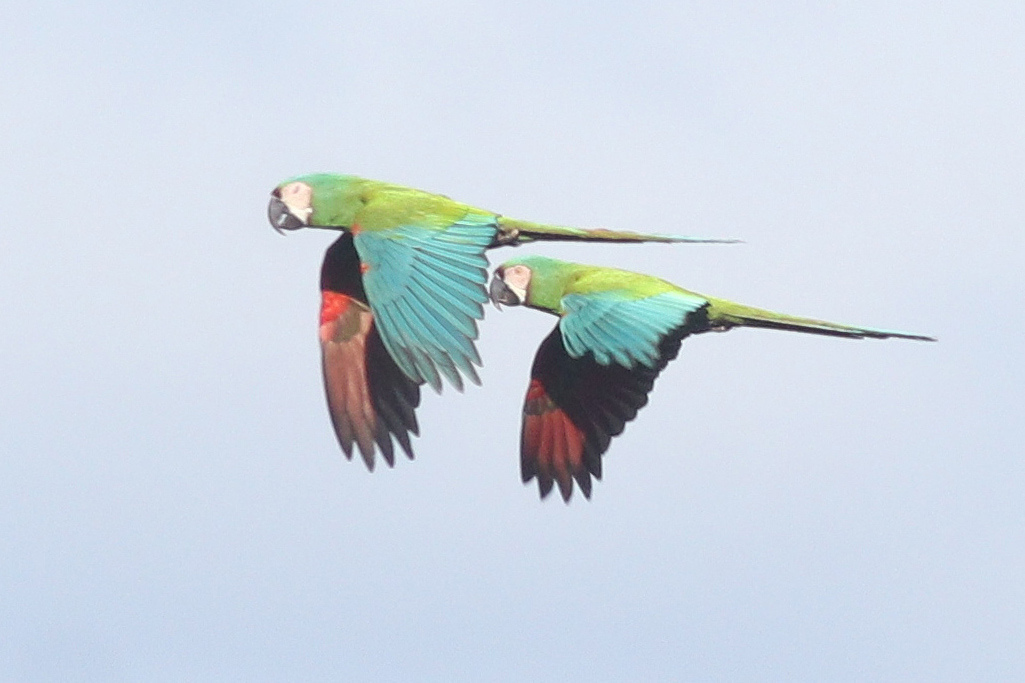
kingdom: Animalia
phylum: Chordata
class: Aves
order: Psittaciformes
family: Psittacidae
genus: Ara
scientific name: Ara severus
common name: Chestnut-fronted macaw
